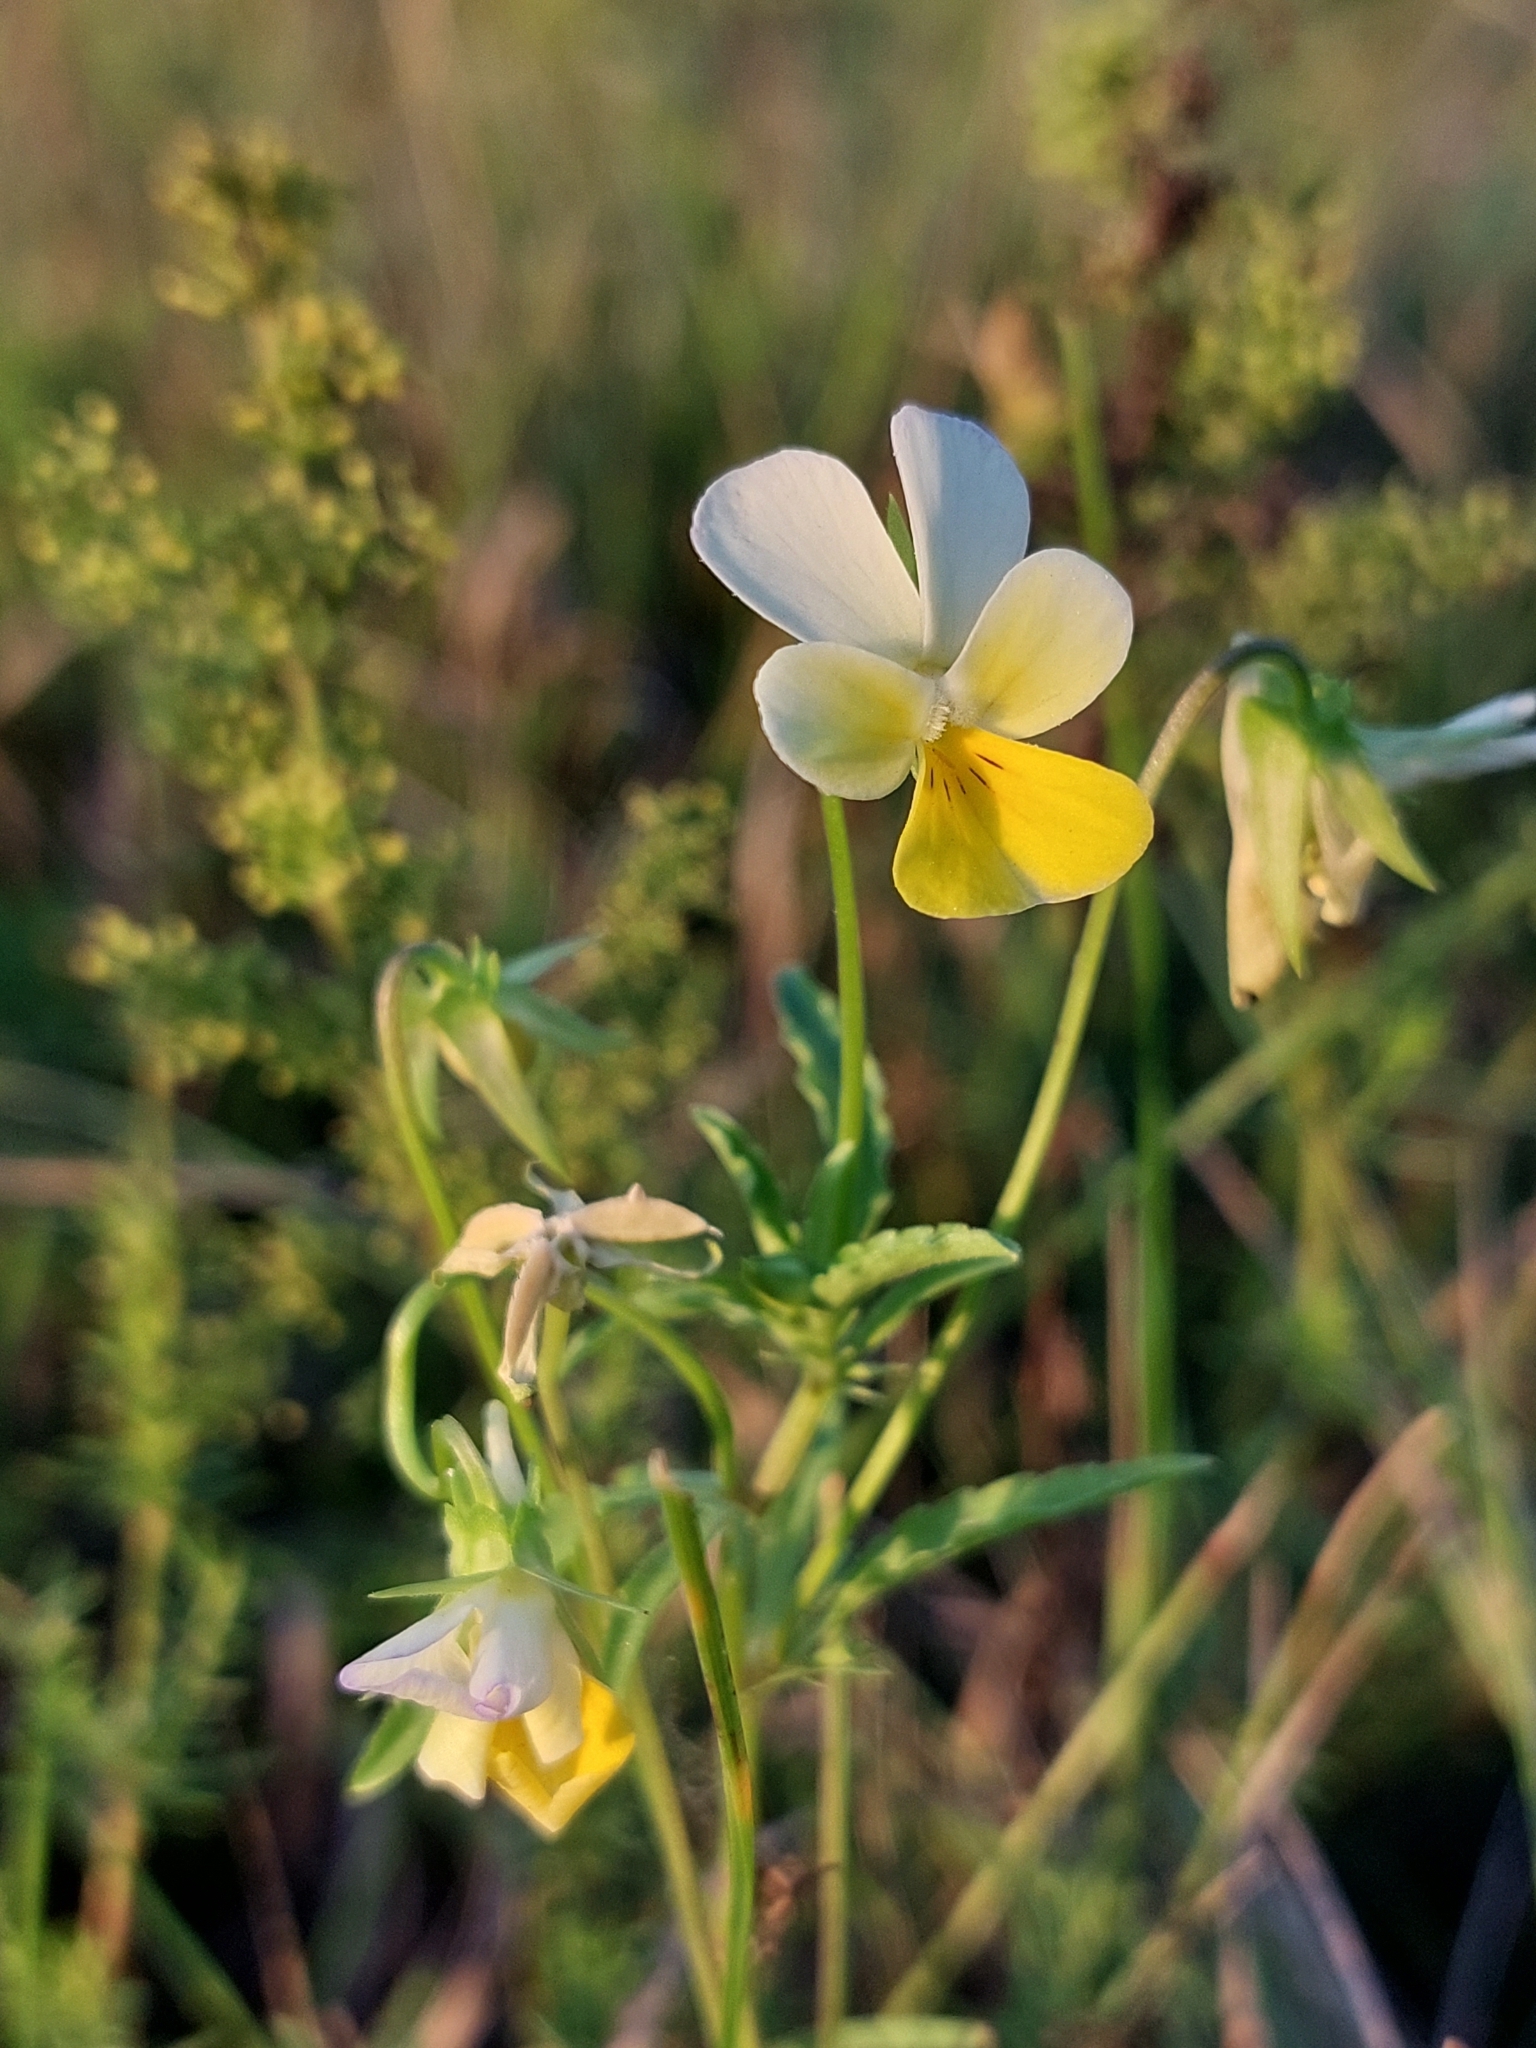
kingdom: Plantae
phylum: Tracheophyta
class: Magnoliopsida
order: Malpighiales
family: Violaceae
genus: Viola
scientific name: Viola arvensis
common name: Field pansy
